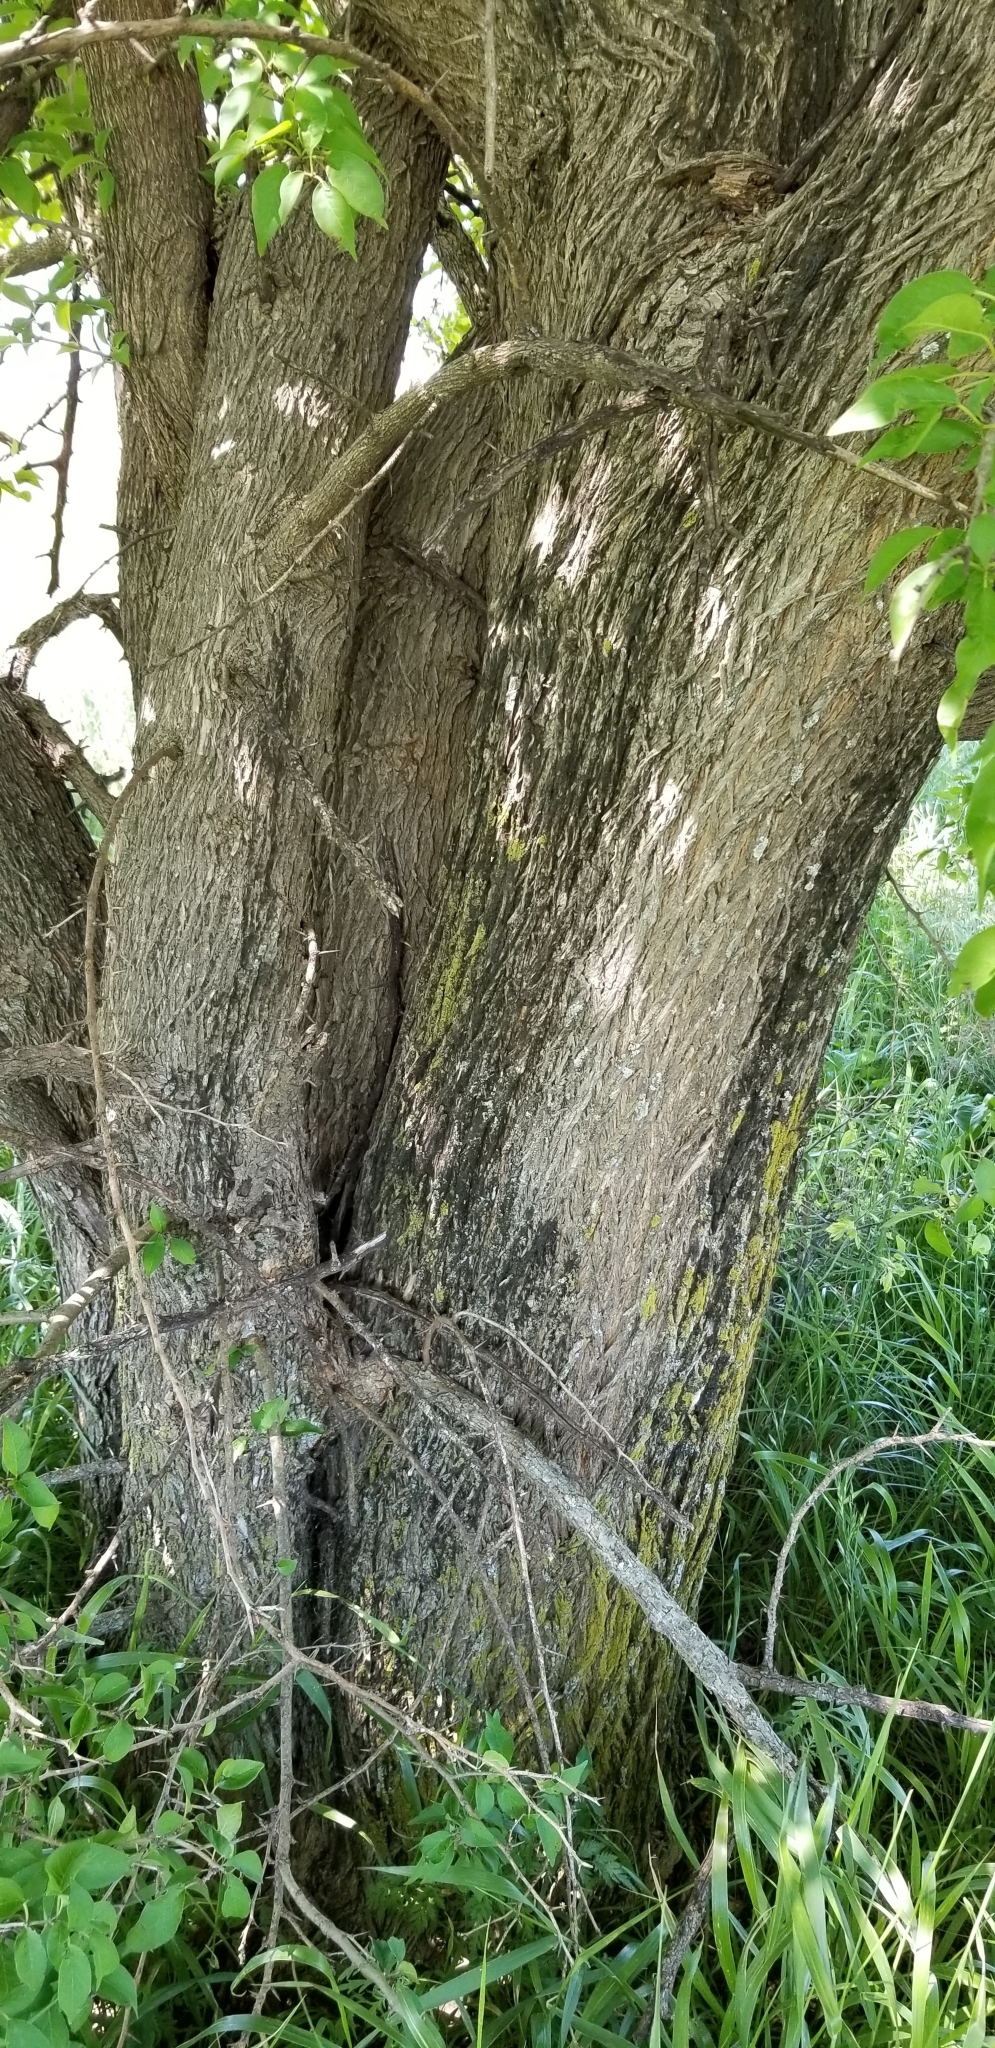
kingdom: Plantae
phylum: Tracheophyta
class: Magnoliopsida
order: Rosales
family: Moraceae
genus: Maclura
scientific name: Maclura pomifera
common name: Osage-orange
